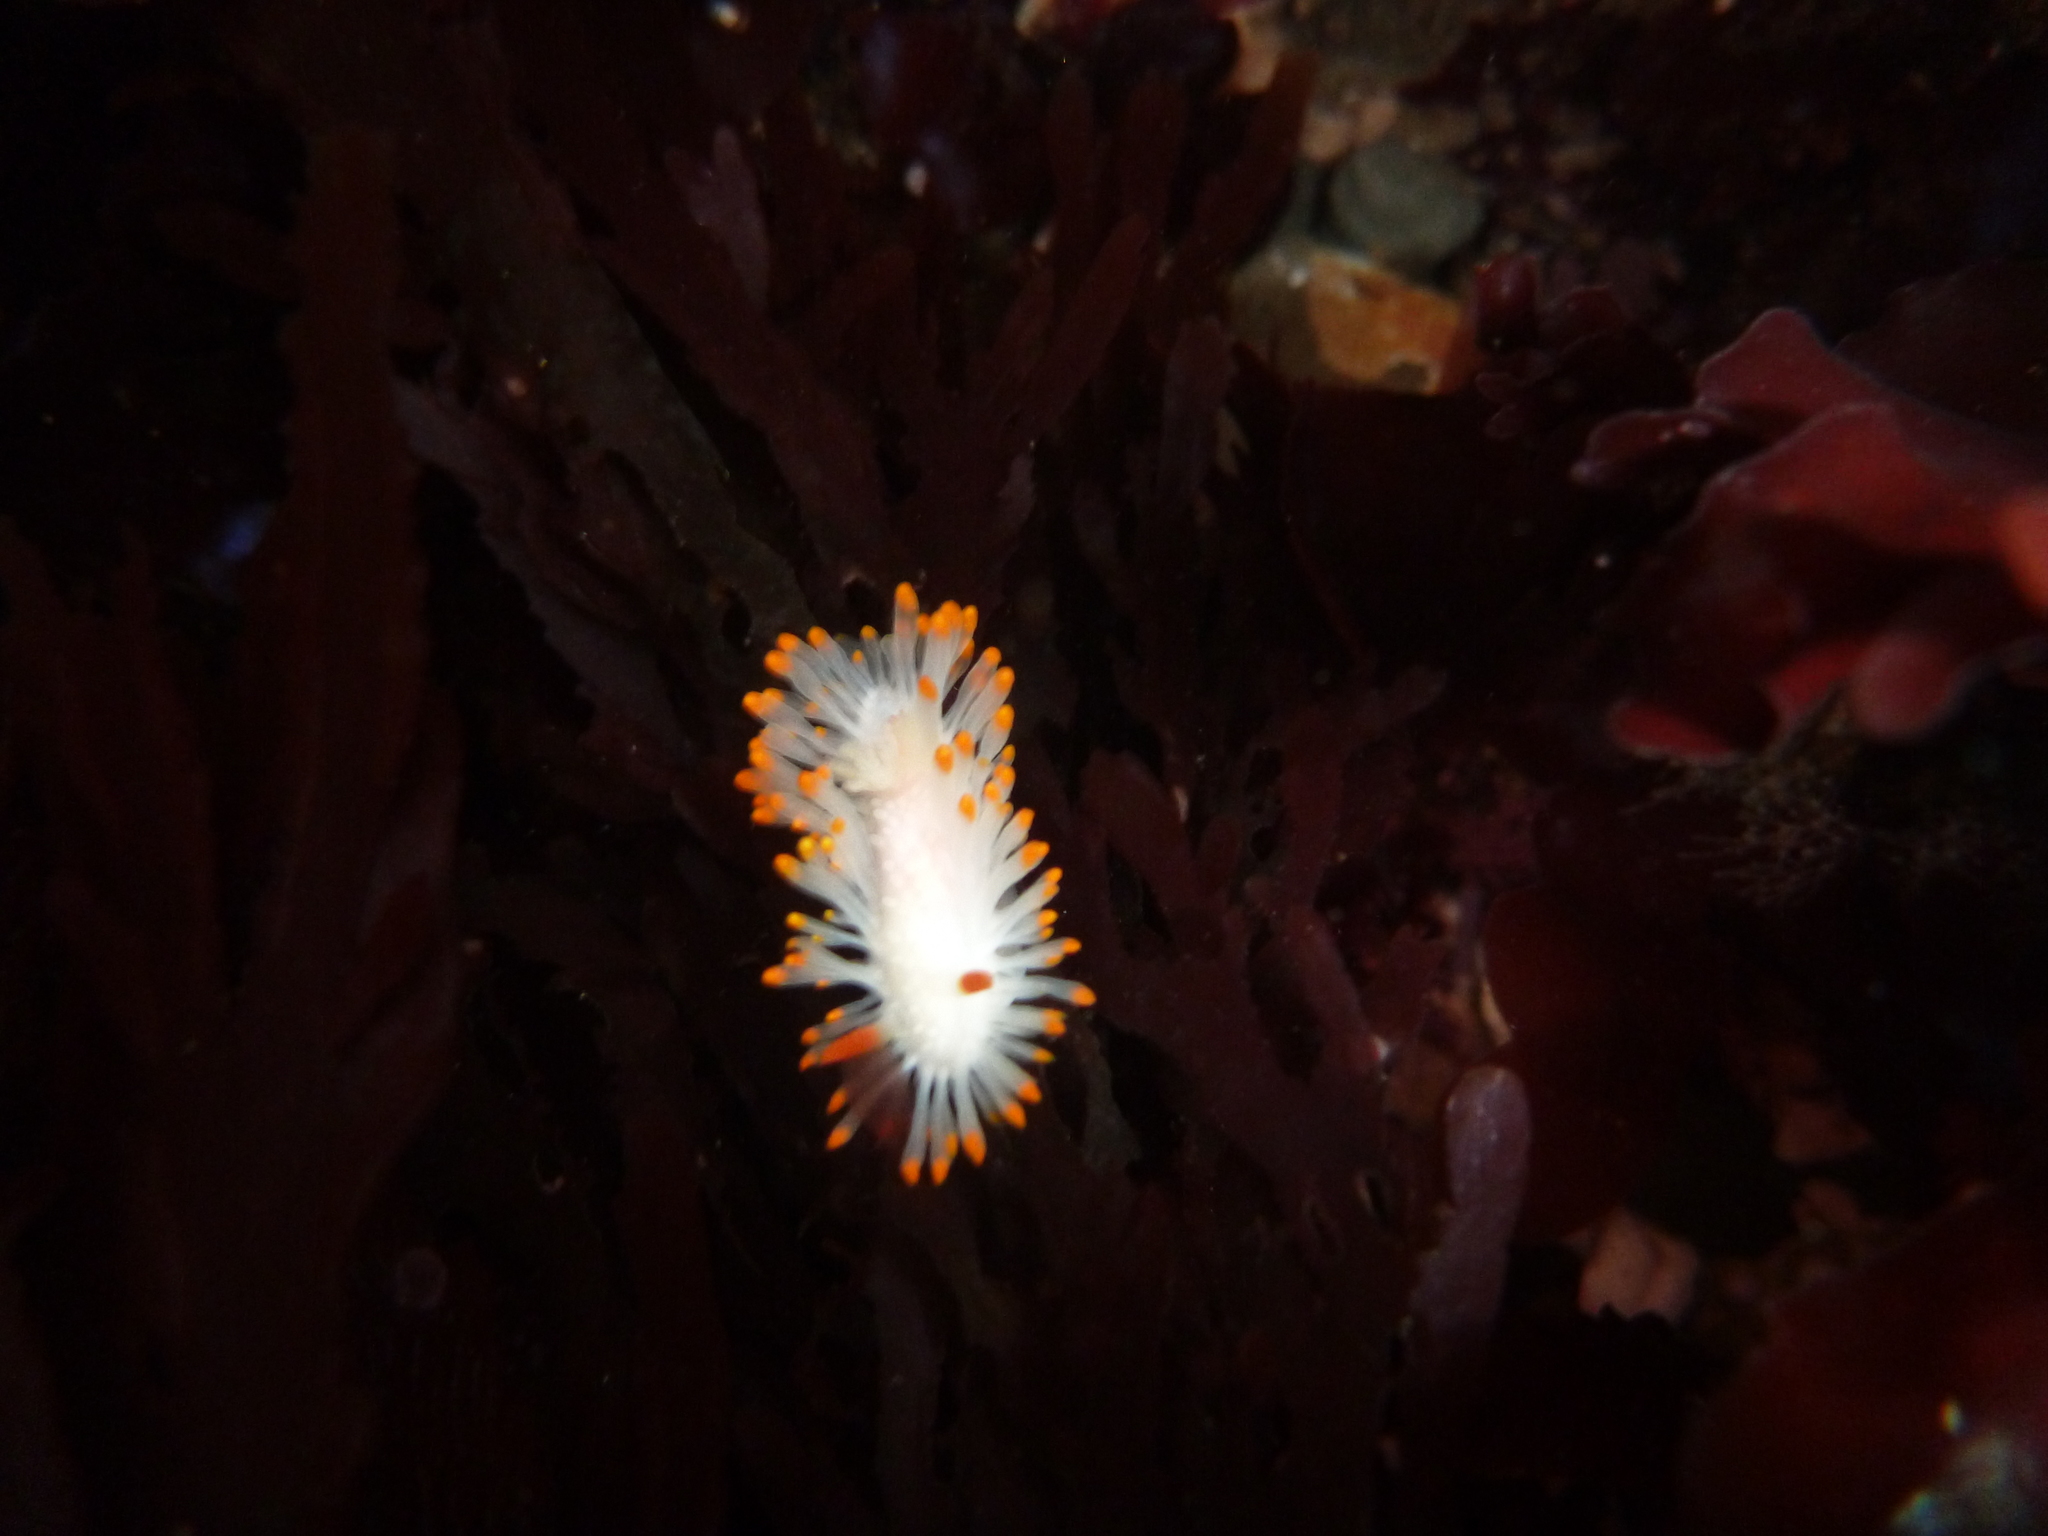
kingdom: Animalia
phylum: Mollusca
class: Gastropoda
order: Nudibranchia
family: Polyceridae
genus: Limacia
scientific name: Limacia cockerelli
